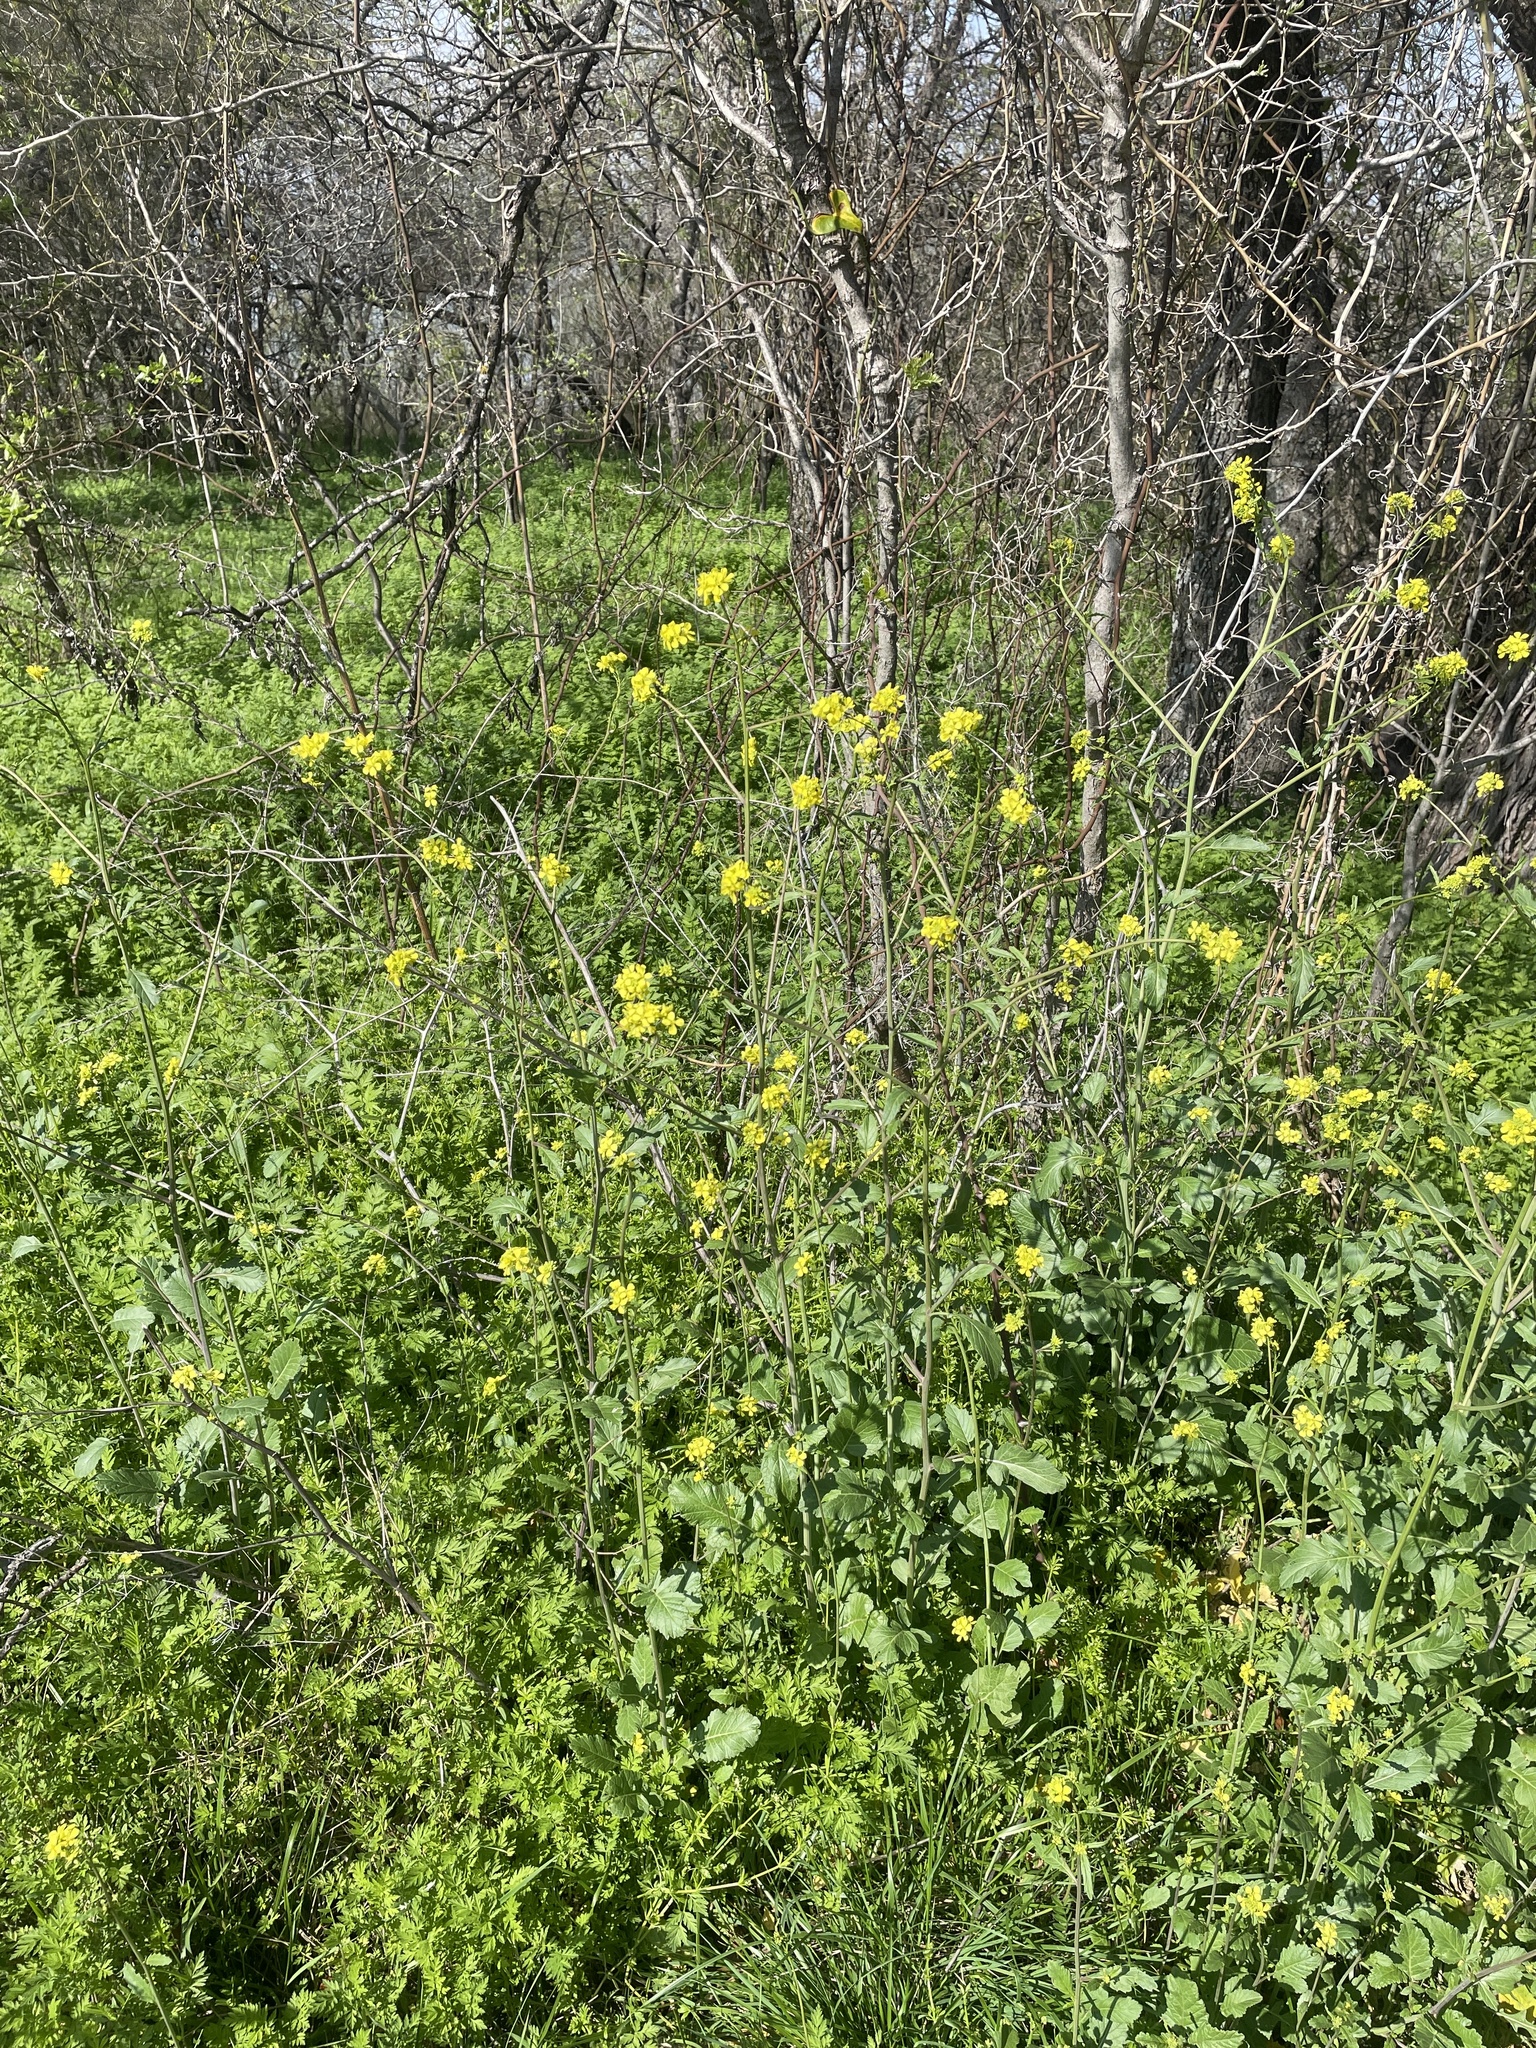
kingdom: Plantae
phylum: Tracheophyta
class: Magnoliopsida
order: Brassicales
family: Brassicaceae
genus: Rapistrum
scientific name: Rapistrum rugosum
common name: Annual bastardcabbage
